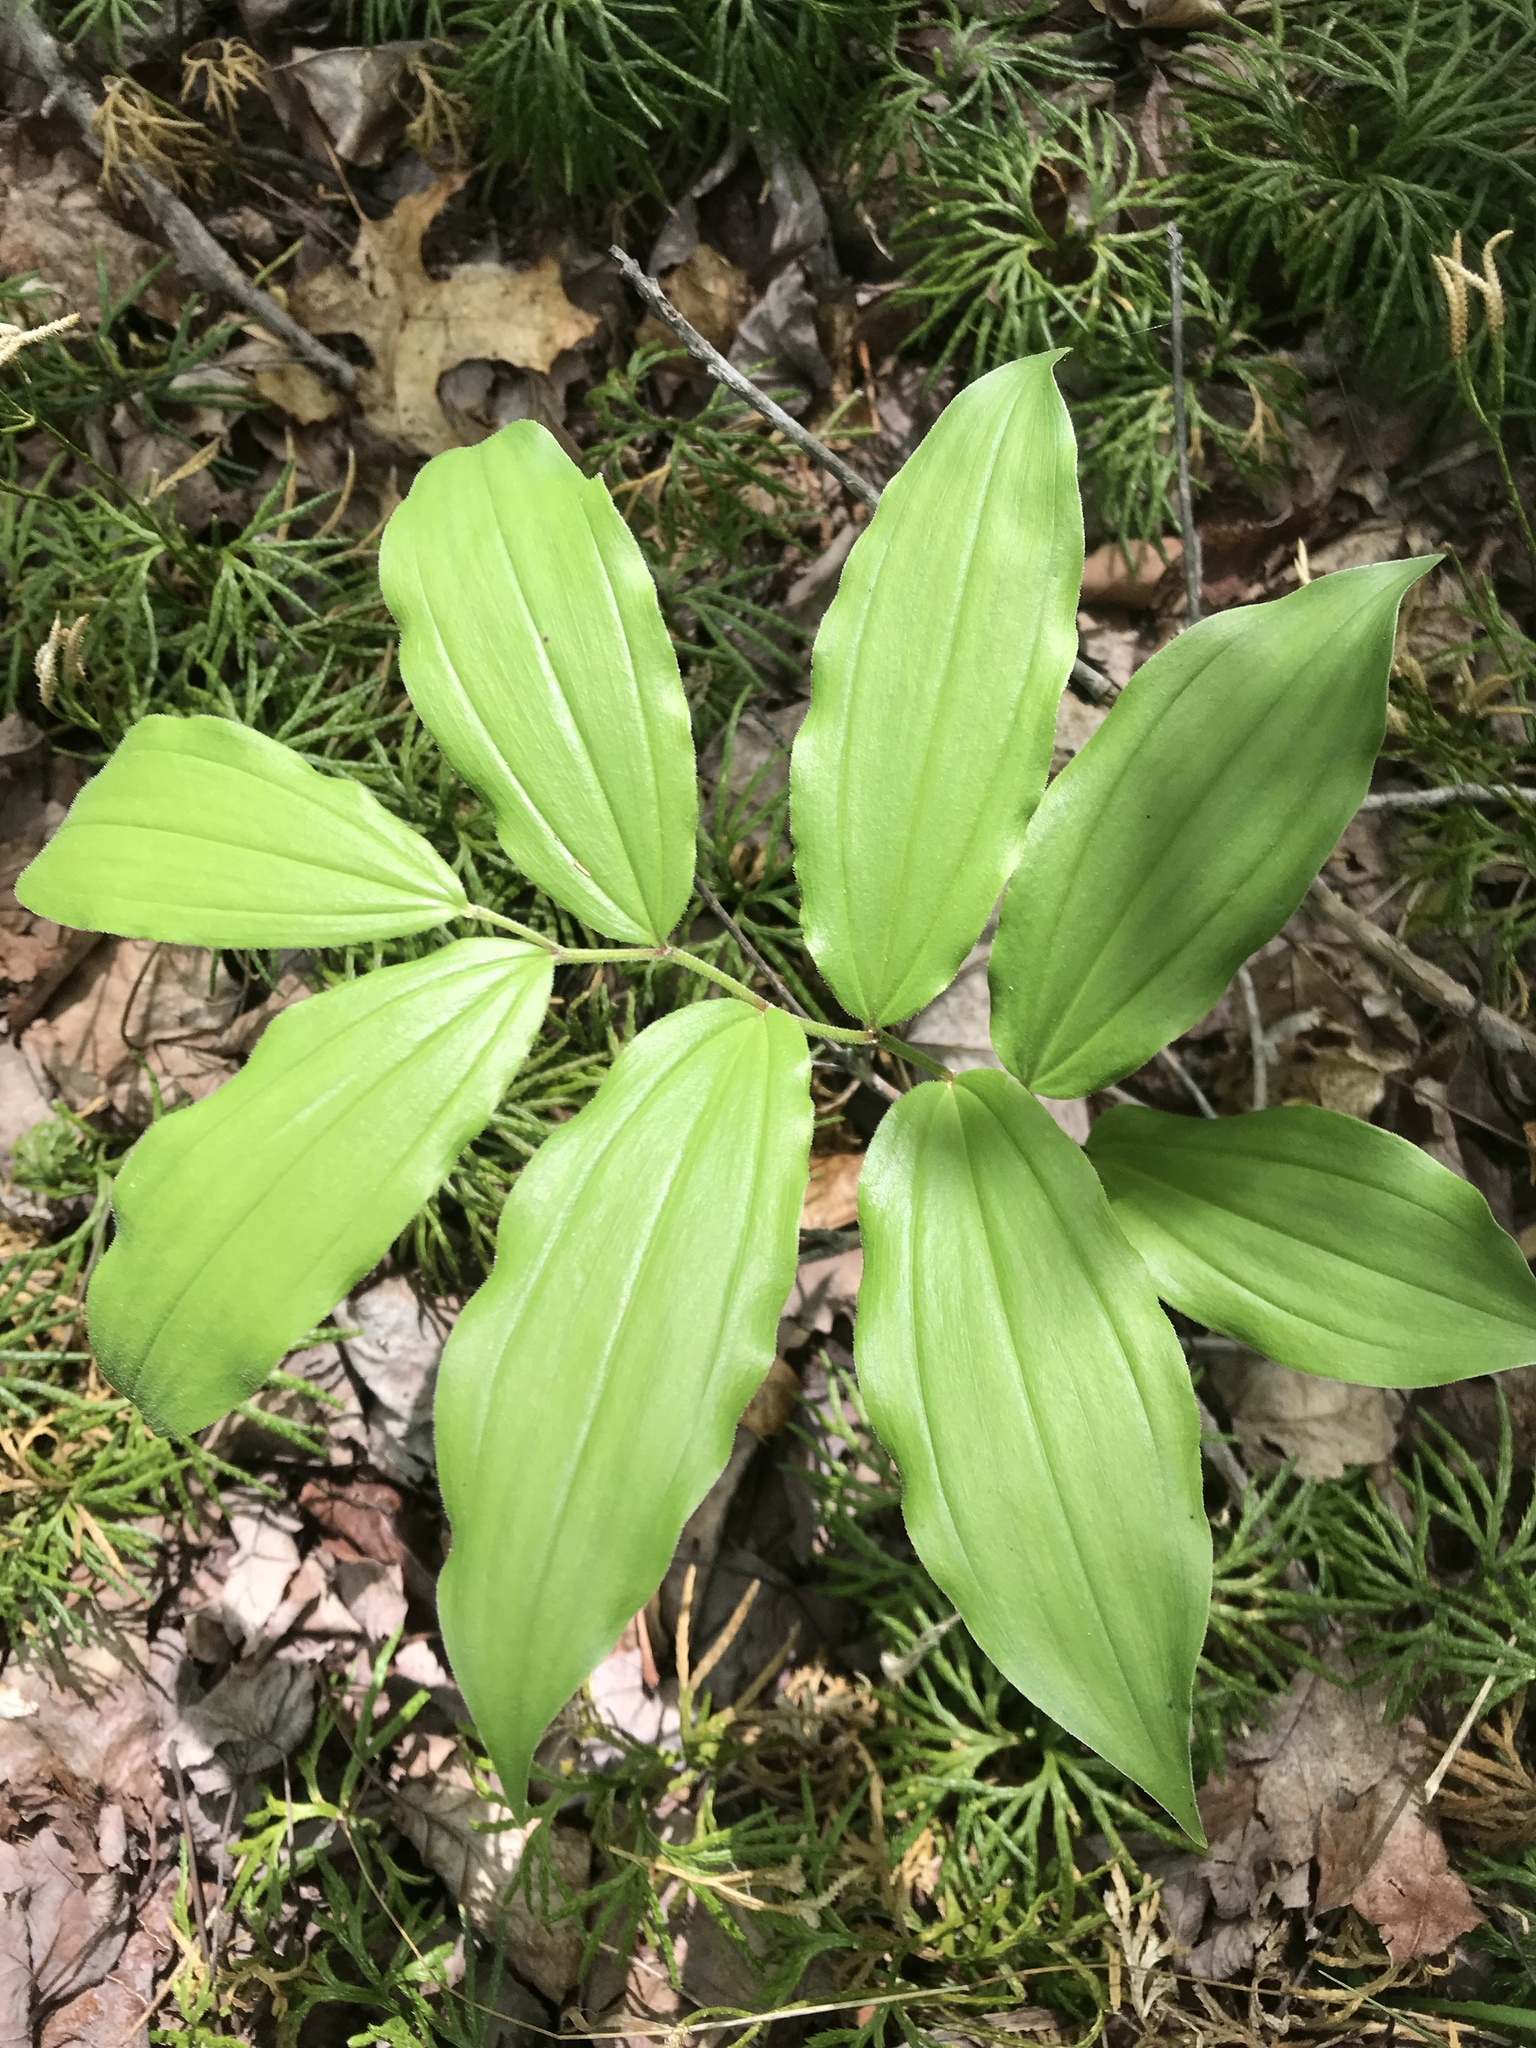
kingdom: Plantae
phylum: Tracheophyta
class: Liliopsida
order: Asparagales
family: Asparagaceae
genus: Maianthemum
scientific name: Maianthemum racemosum
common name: False spikenard
